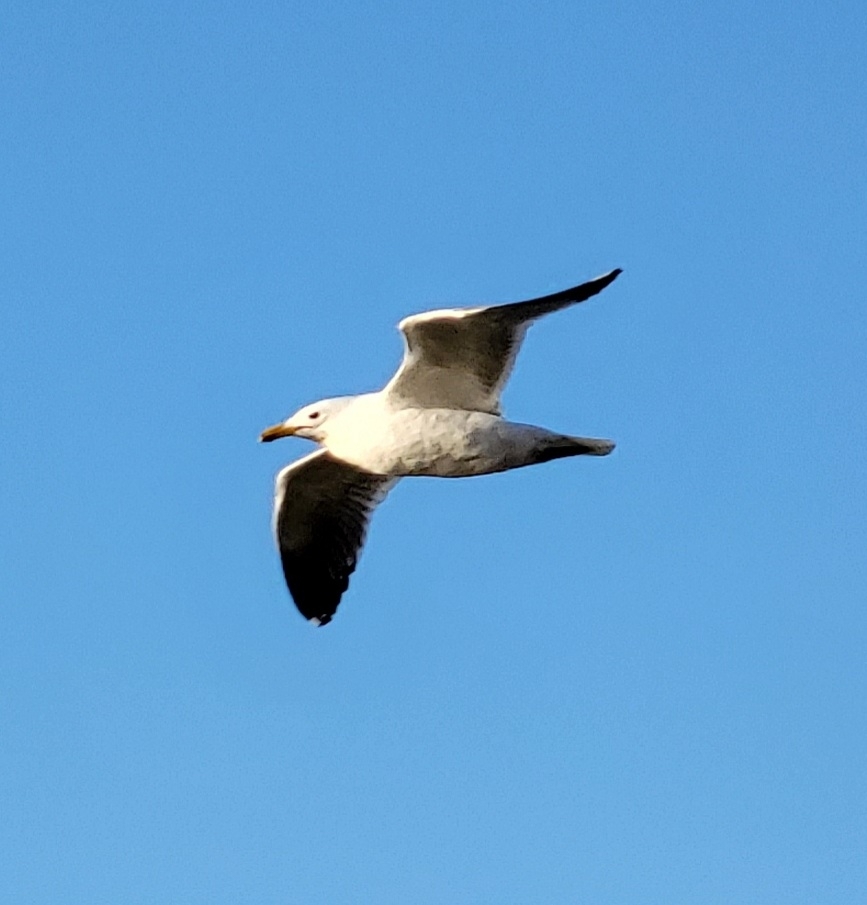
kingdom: Animalia
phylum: Chordata
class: Aves
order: Charadriiformes
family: Laridae
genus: Larus
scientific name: Larus californicus
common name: California gull
